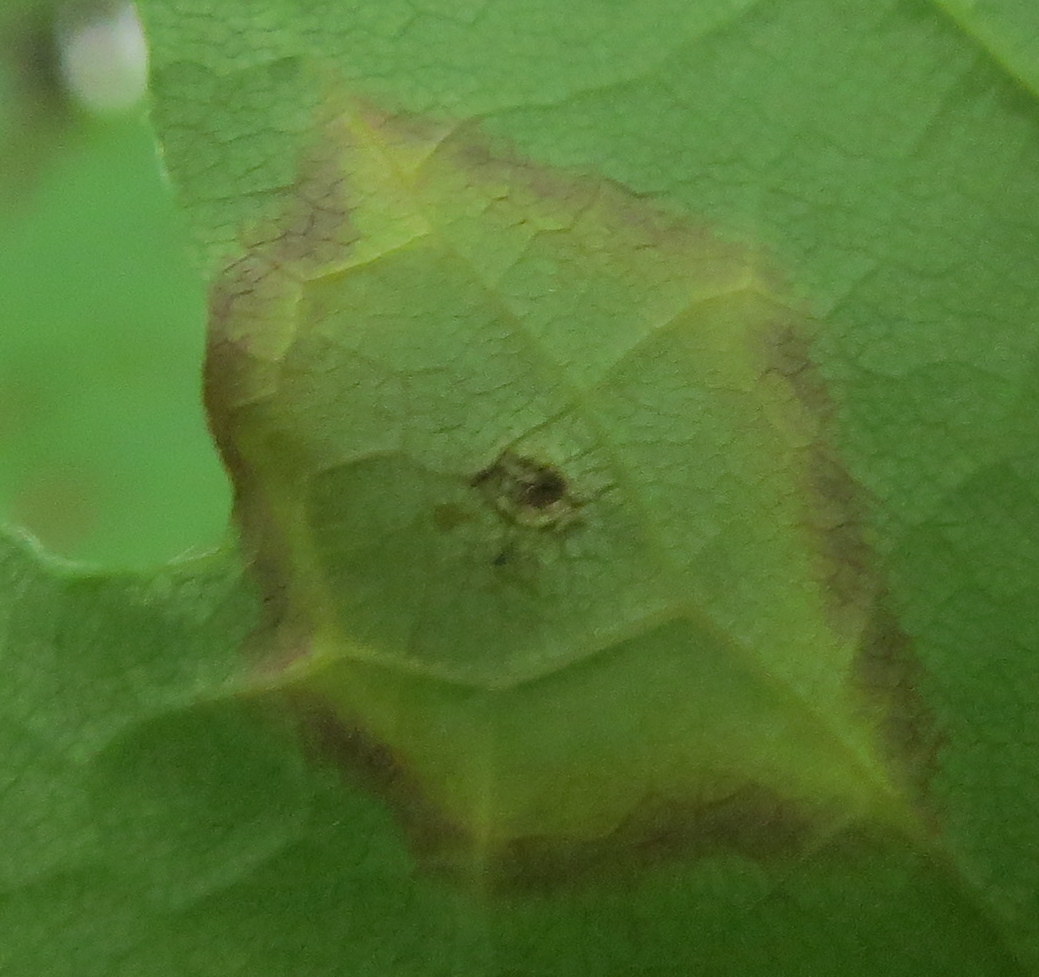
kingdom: Animalia
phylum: Arthropoda
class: Insecta
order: Diptera
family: Cecidomyiidae
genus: Acericecis
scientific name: Acericecis ocellaris
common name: Ocellate gall midge
